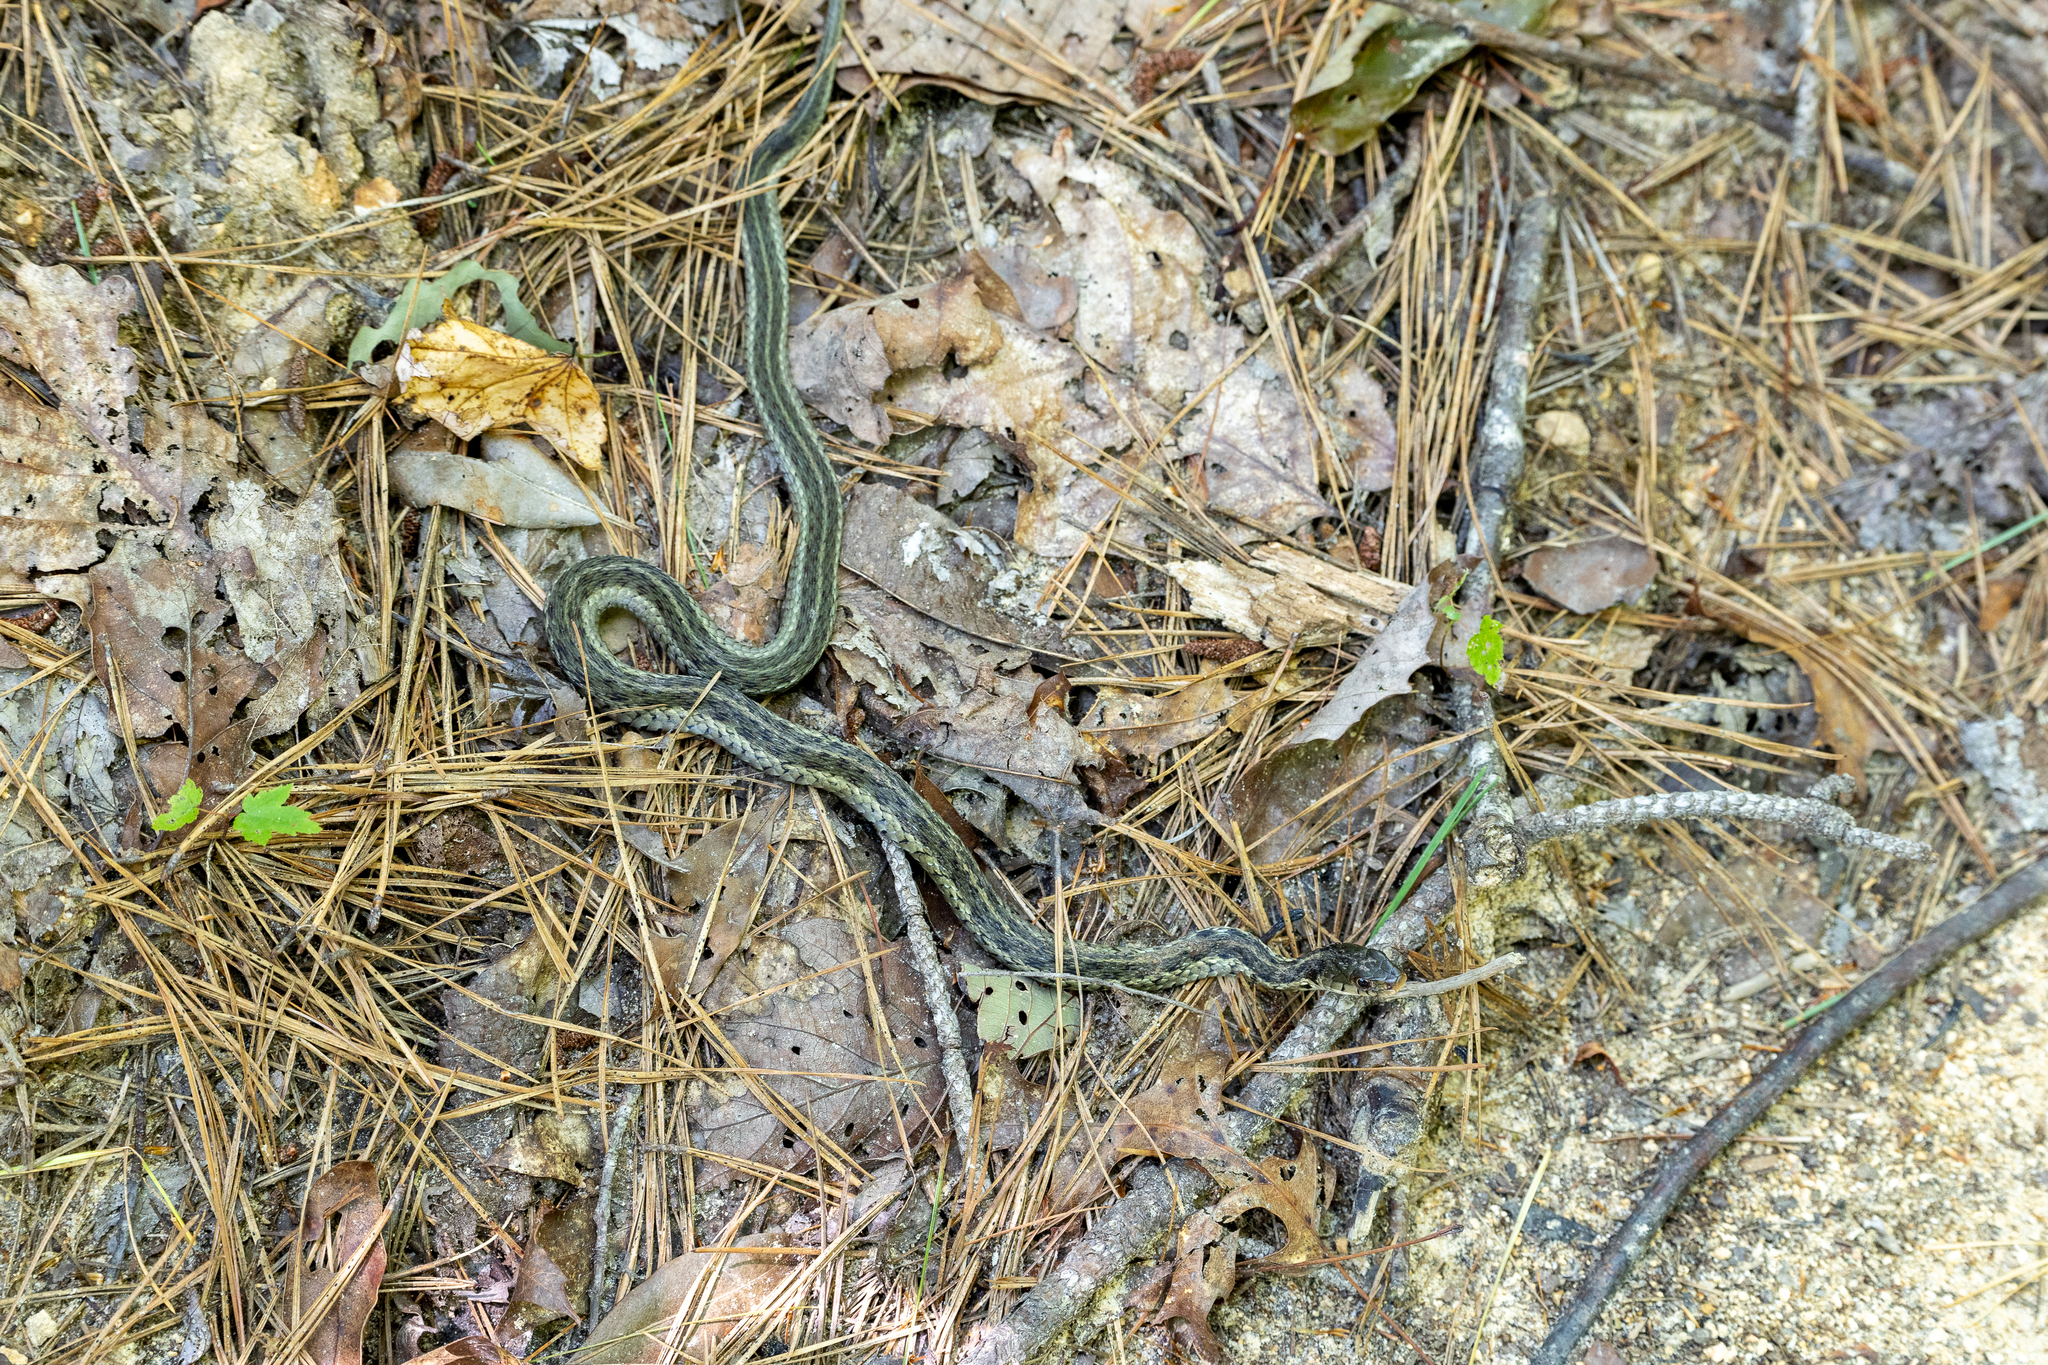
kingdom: Animalia
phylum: Chordata
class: Squamata
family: Colubridae
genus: Thamnophis
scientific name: Thamnophis sirtalis
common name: Common garter snake
